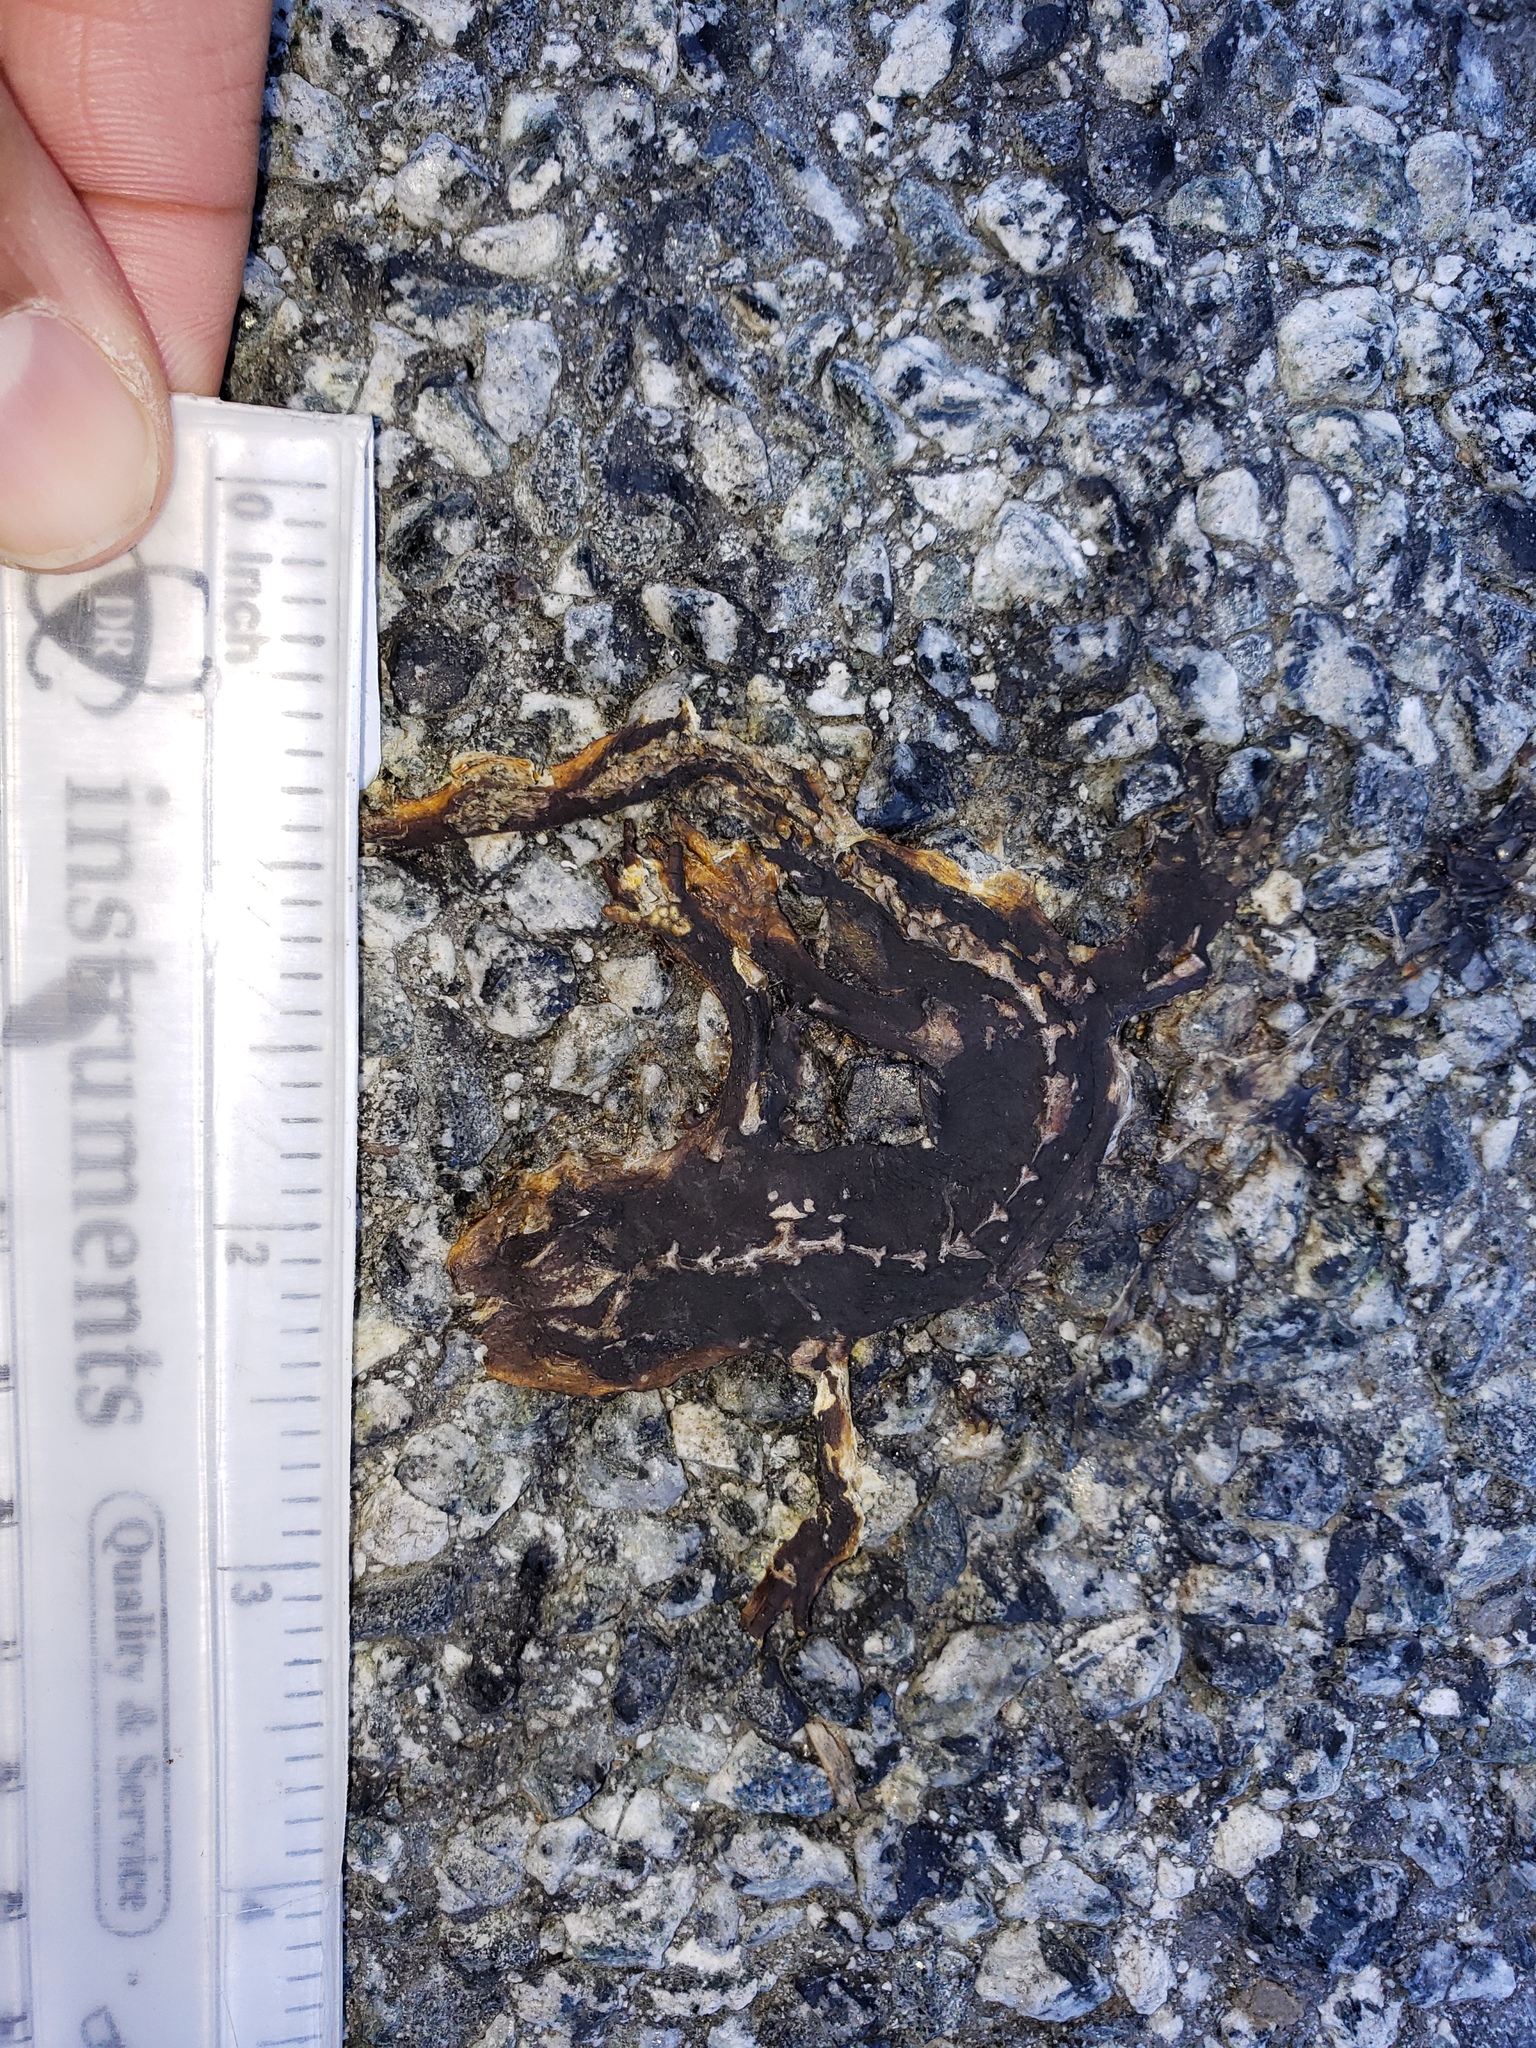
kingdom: Animalia
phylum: Chordata
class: Amphibia
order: Caudata
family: Salamandridae
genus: Taricha
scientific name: Taricha
